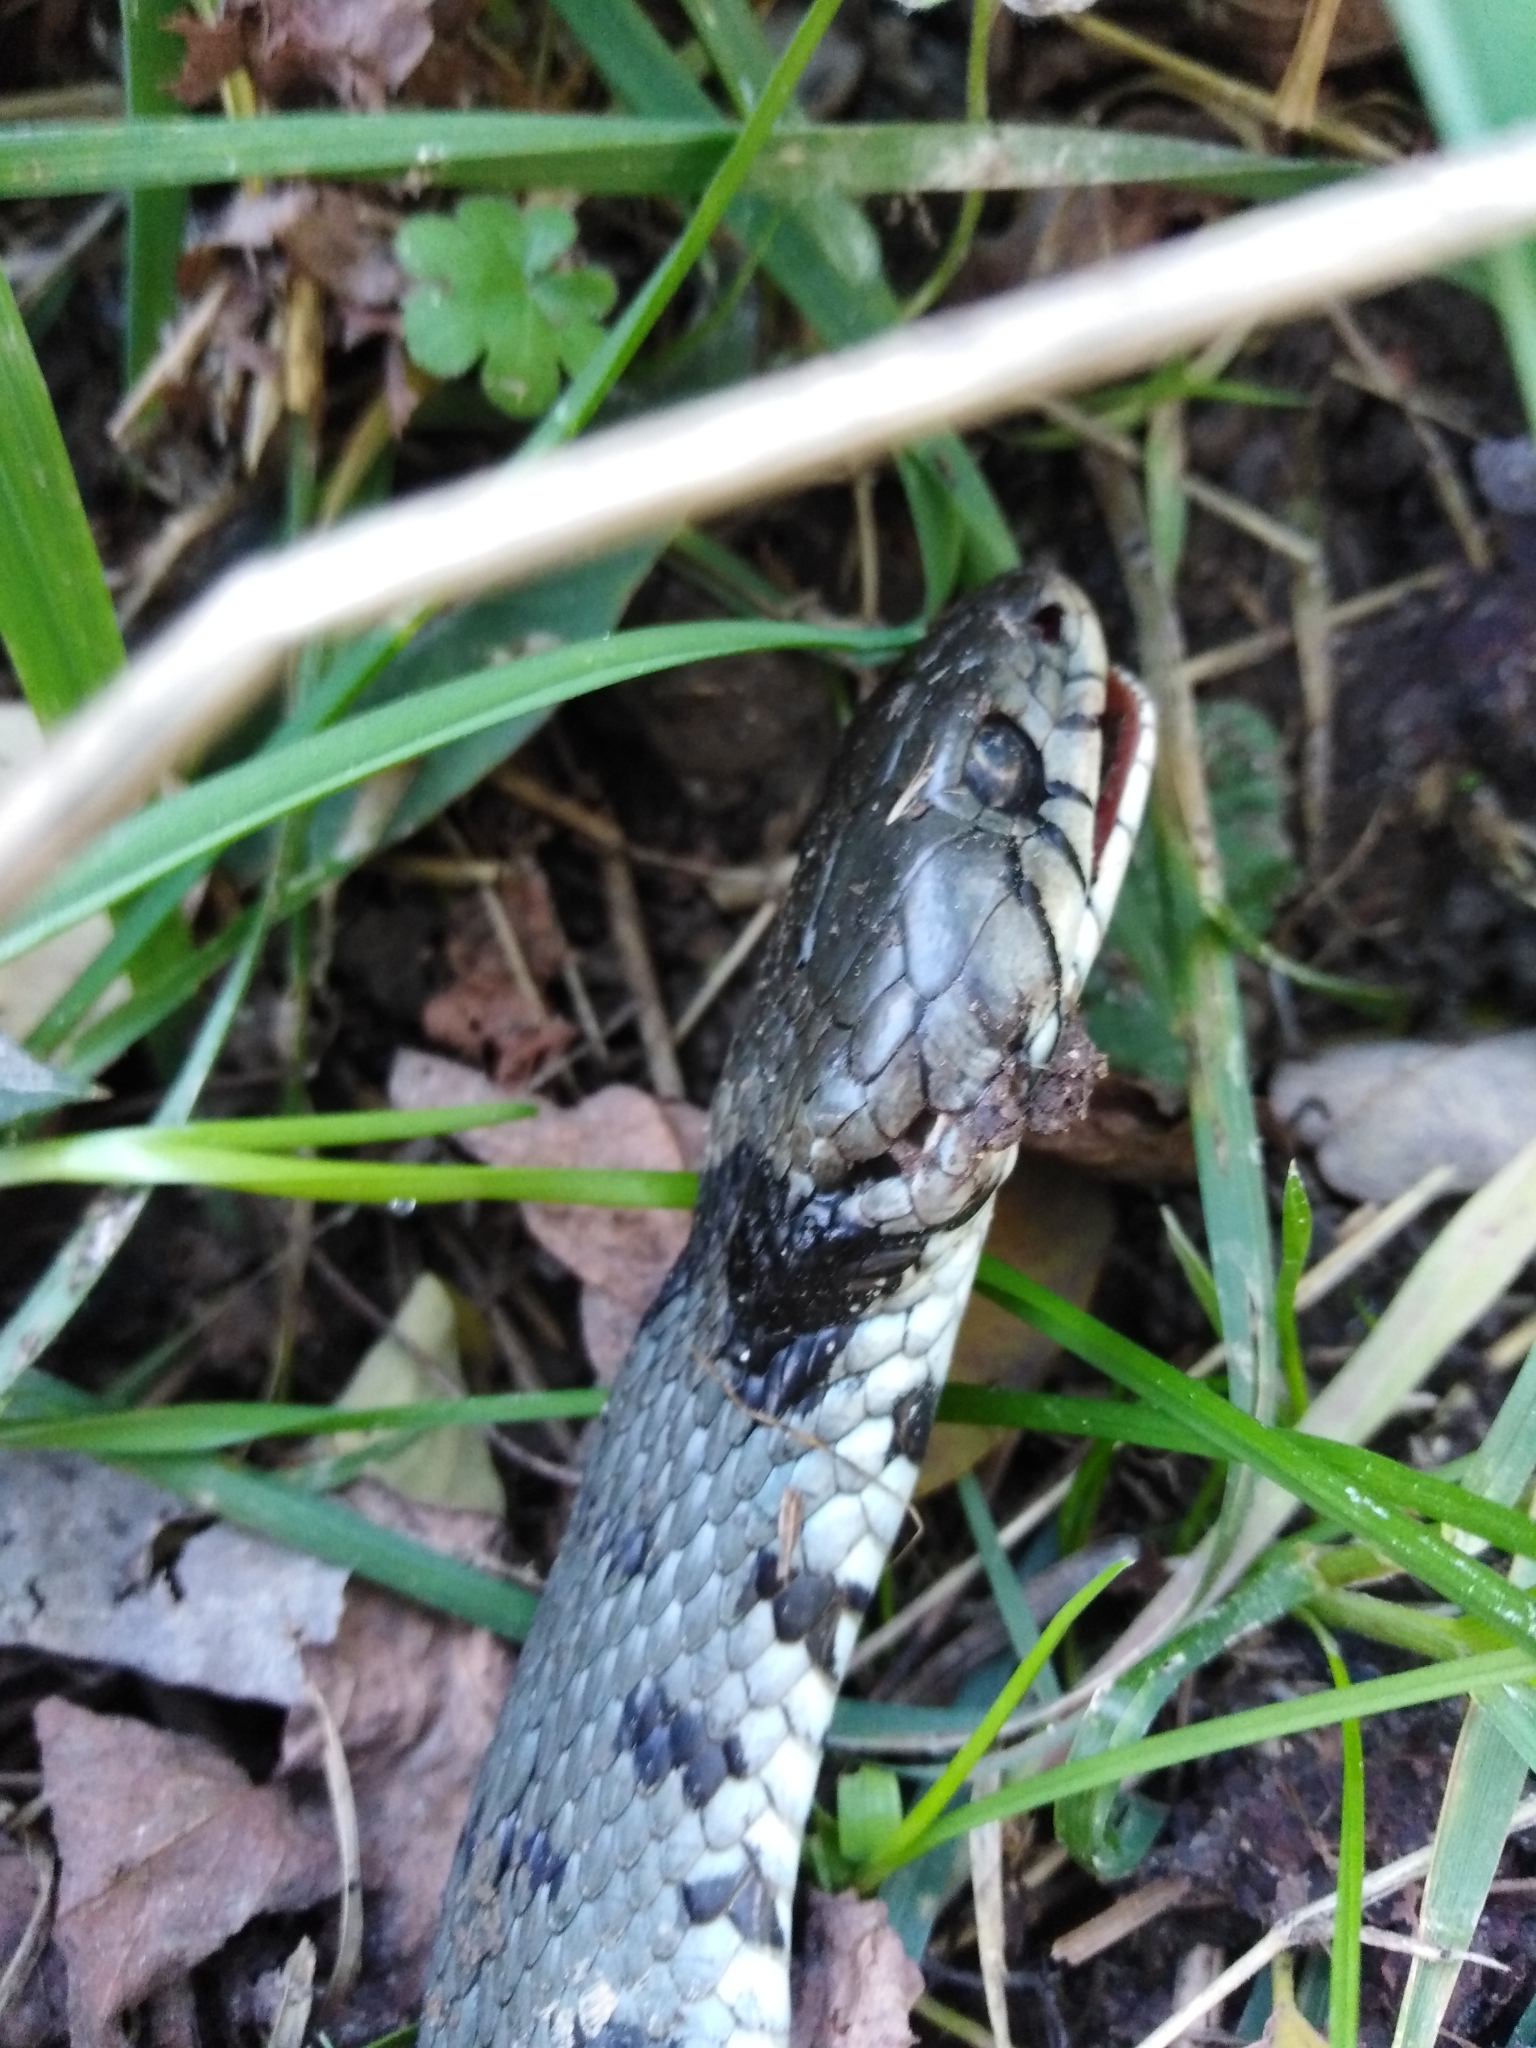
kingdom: Animalia
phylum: Chordata
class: Squamata
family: Colubridae
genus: Natrix
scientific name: Natrix helvetica
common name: Banded grass snake
